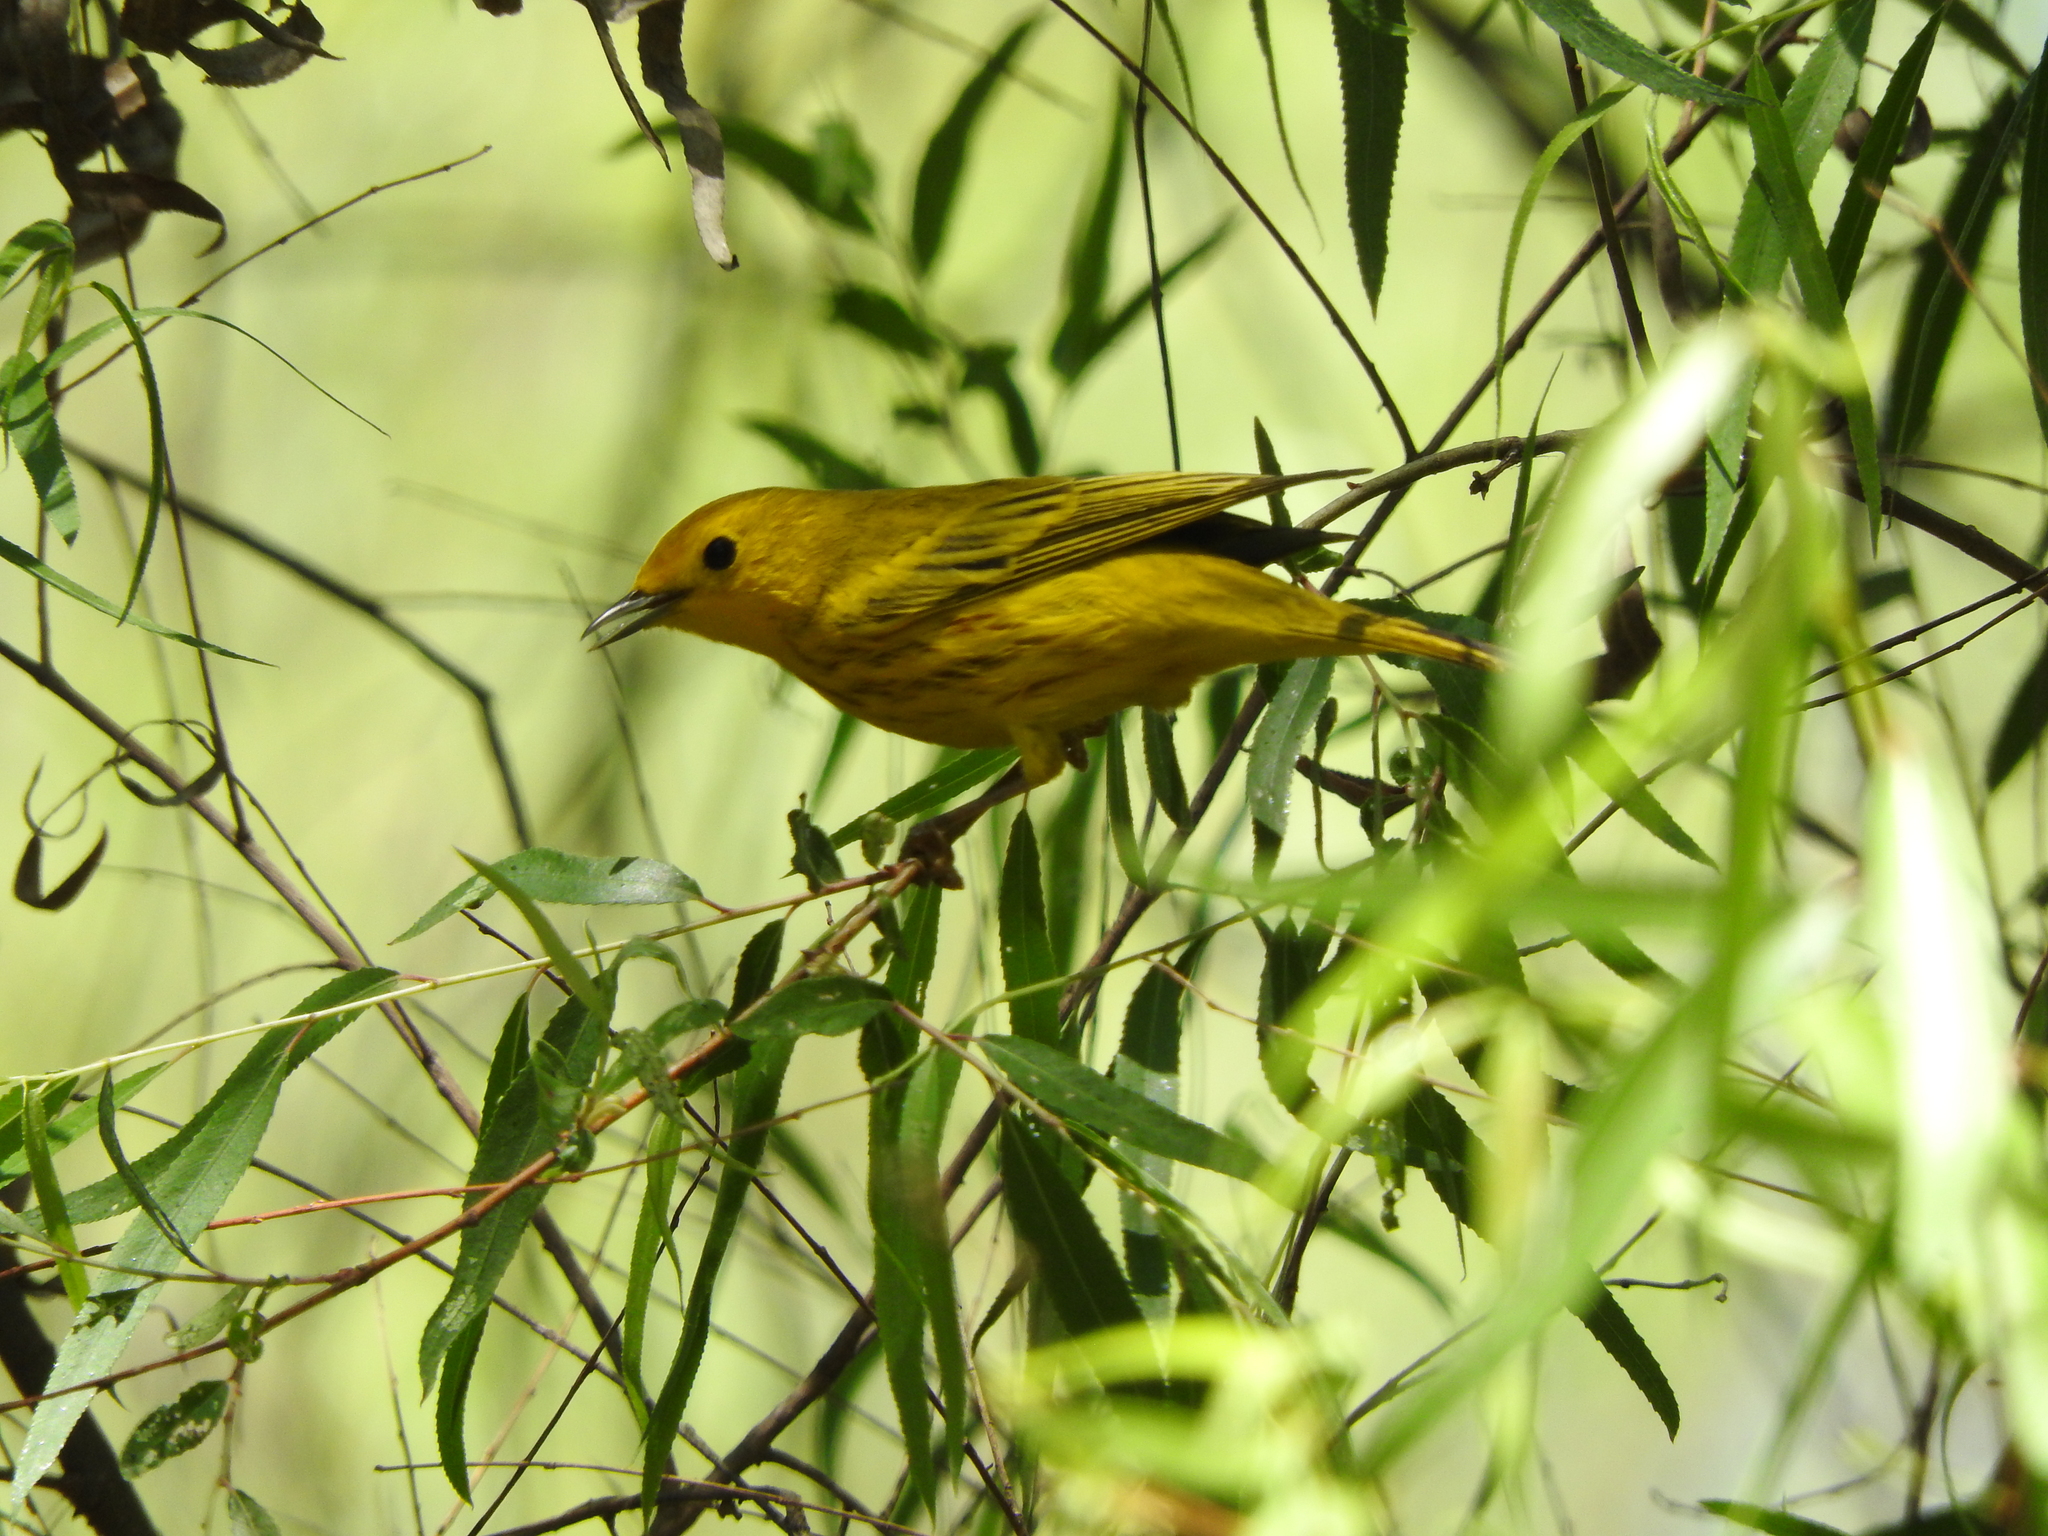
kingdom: Animalia
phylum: Chordata
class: Aves
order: Passeriformes
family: Parulidae
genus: Setophaga
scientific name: Setophaga petechia
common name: Yellow warbler
